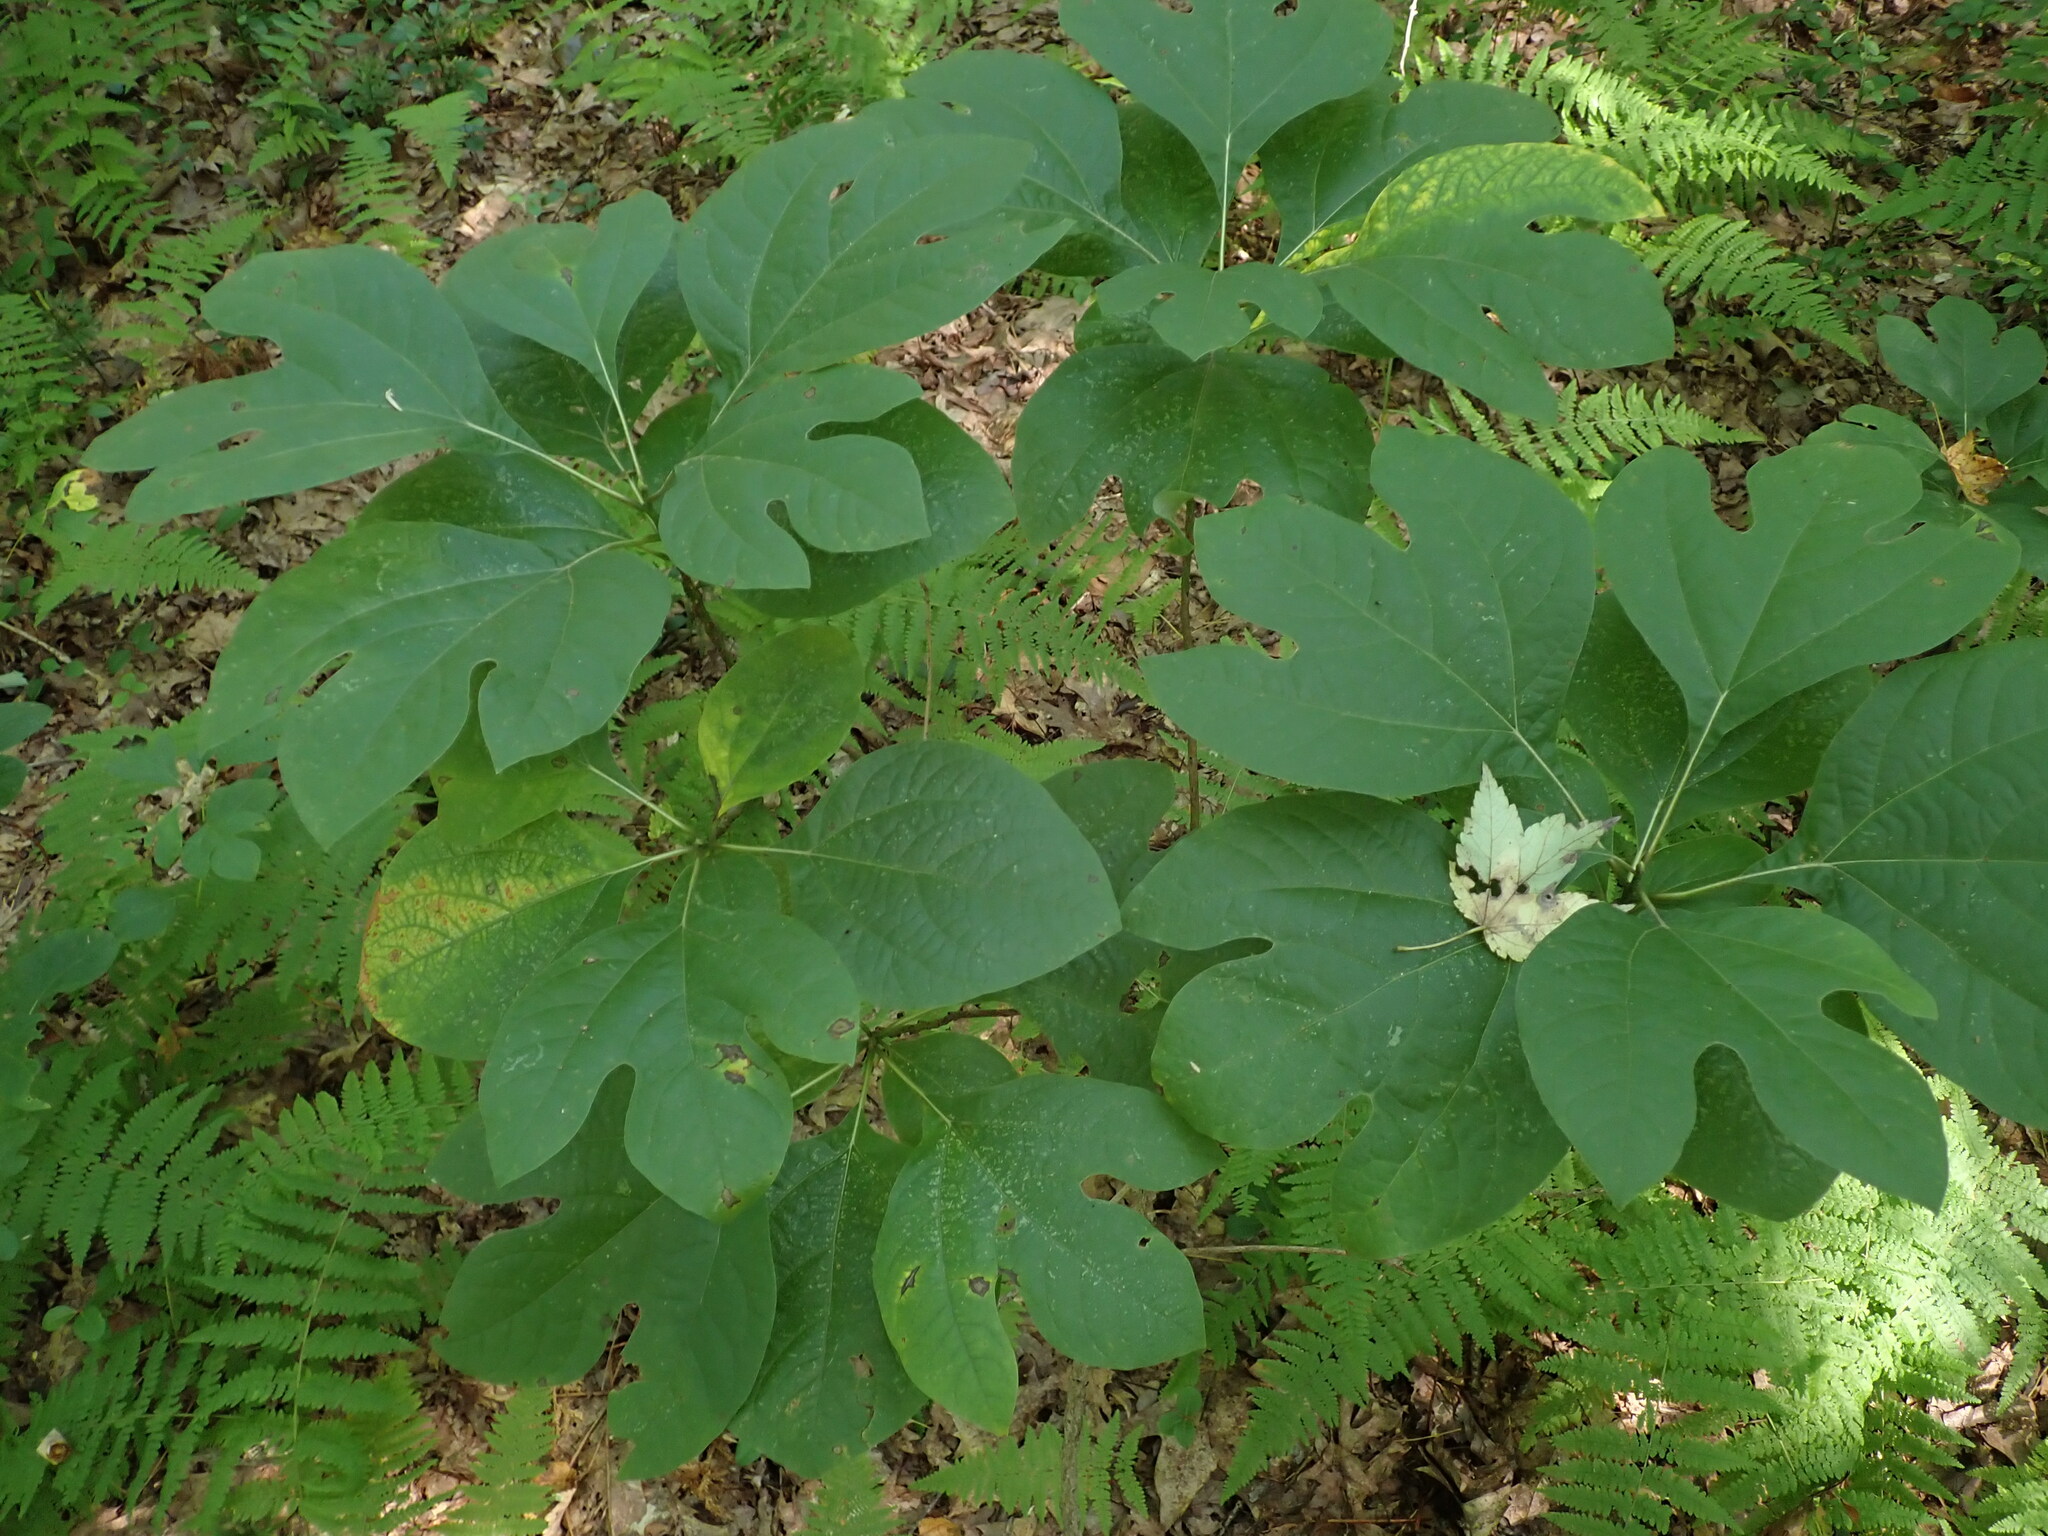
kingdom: Plantae
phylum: Tracheophyta
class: Magnoliopsida
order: Laurales
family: Lauraceae
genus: Sassafras
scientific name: Sassafras albidum
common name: Sassafras
